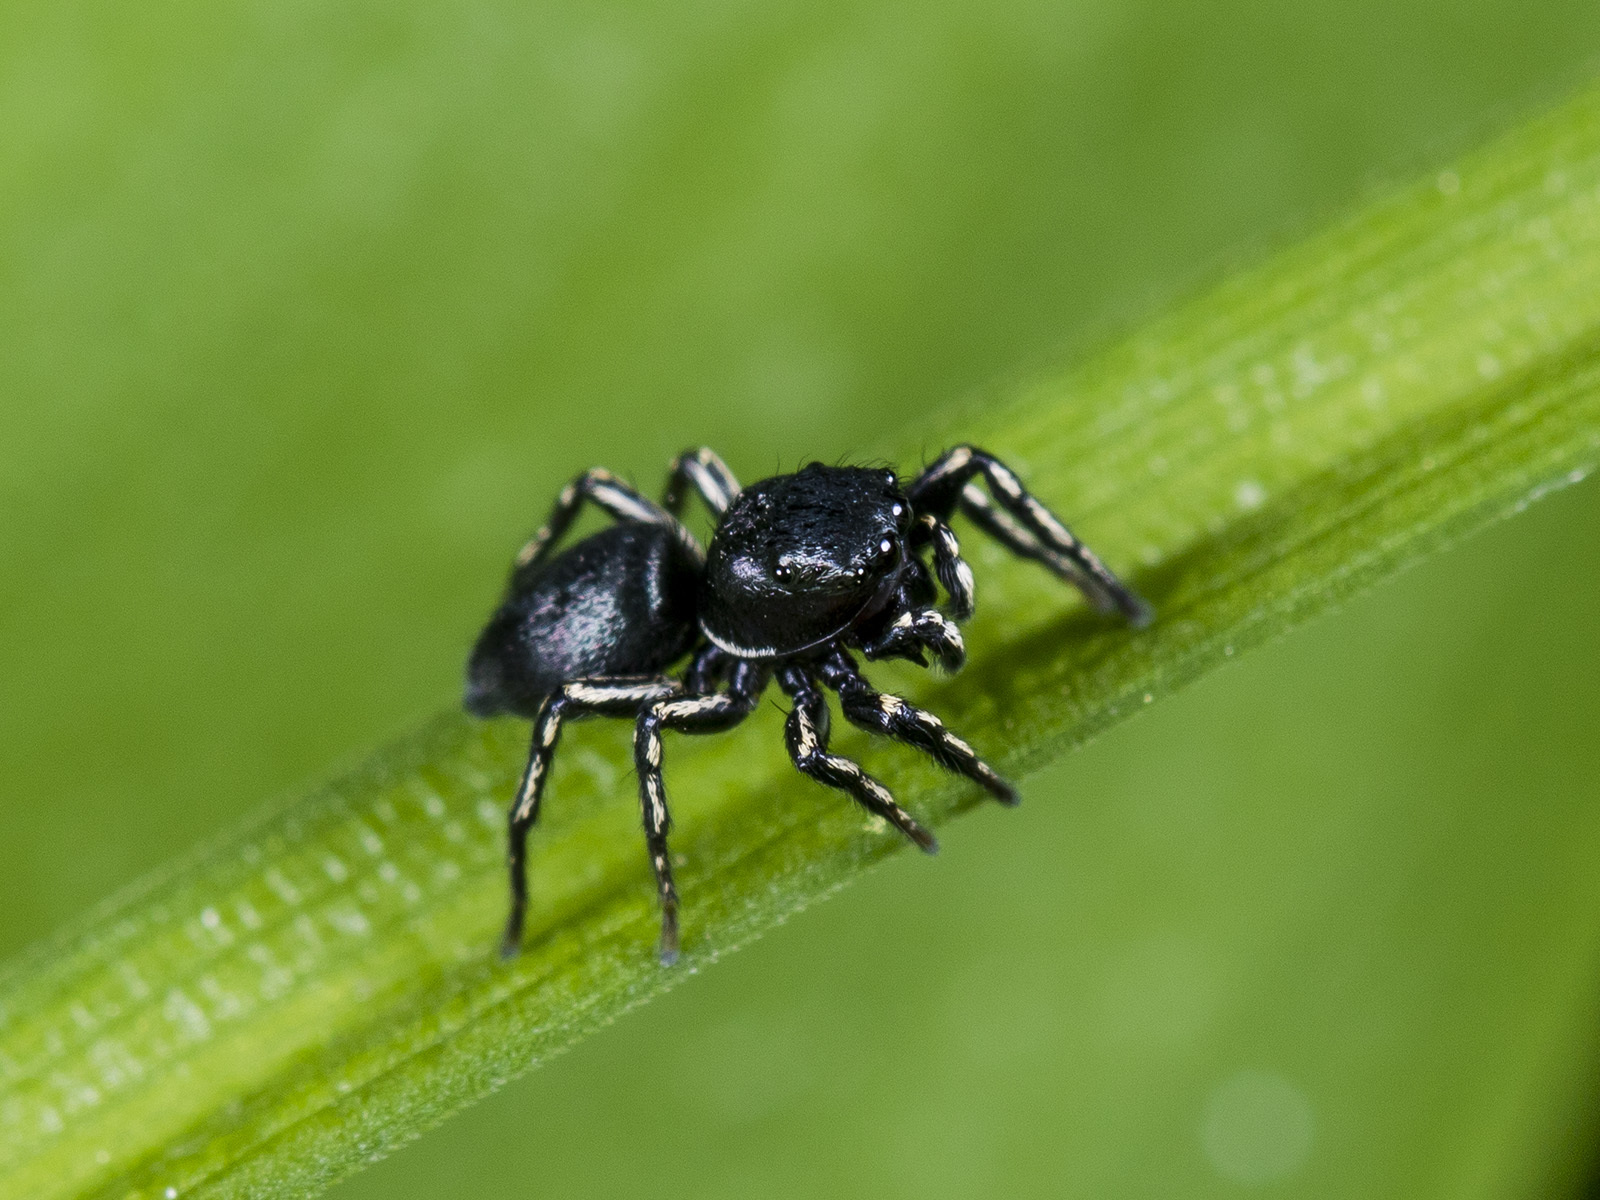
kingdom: Animalia
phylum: Arthropoda
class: Arachnida
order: Araneae
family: Salticidae
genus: Heliophanus
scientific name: Heliophanus potanini
